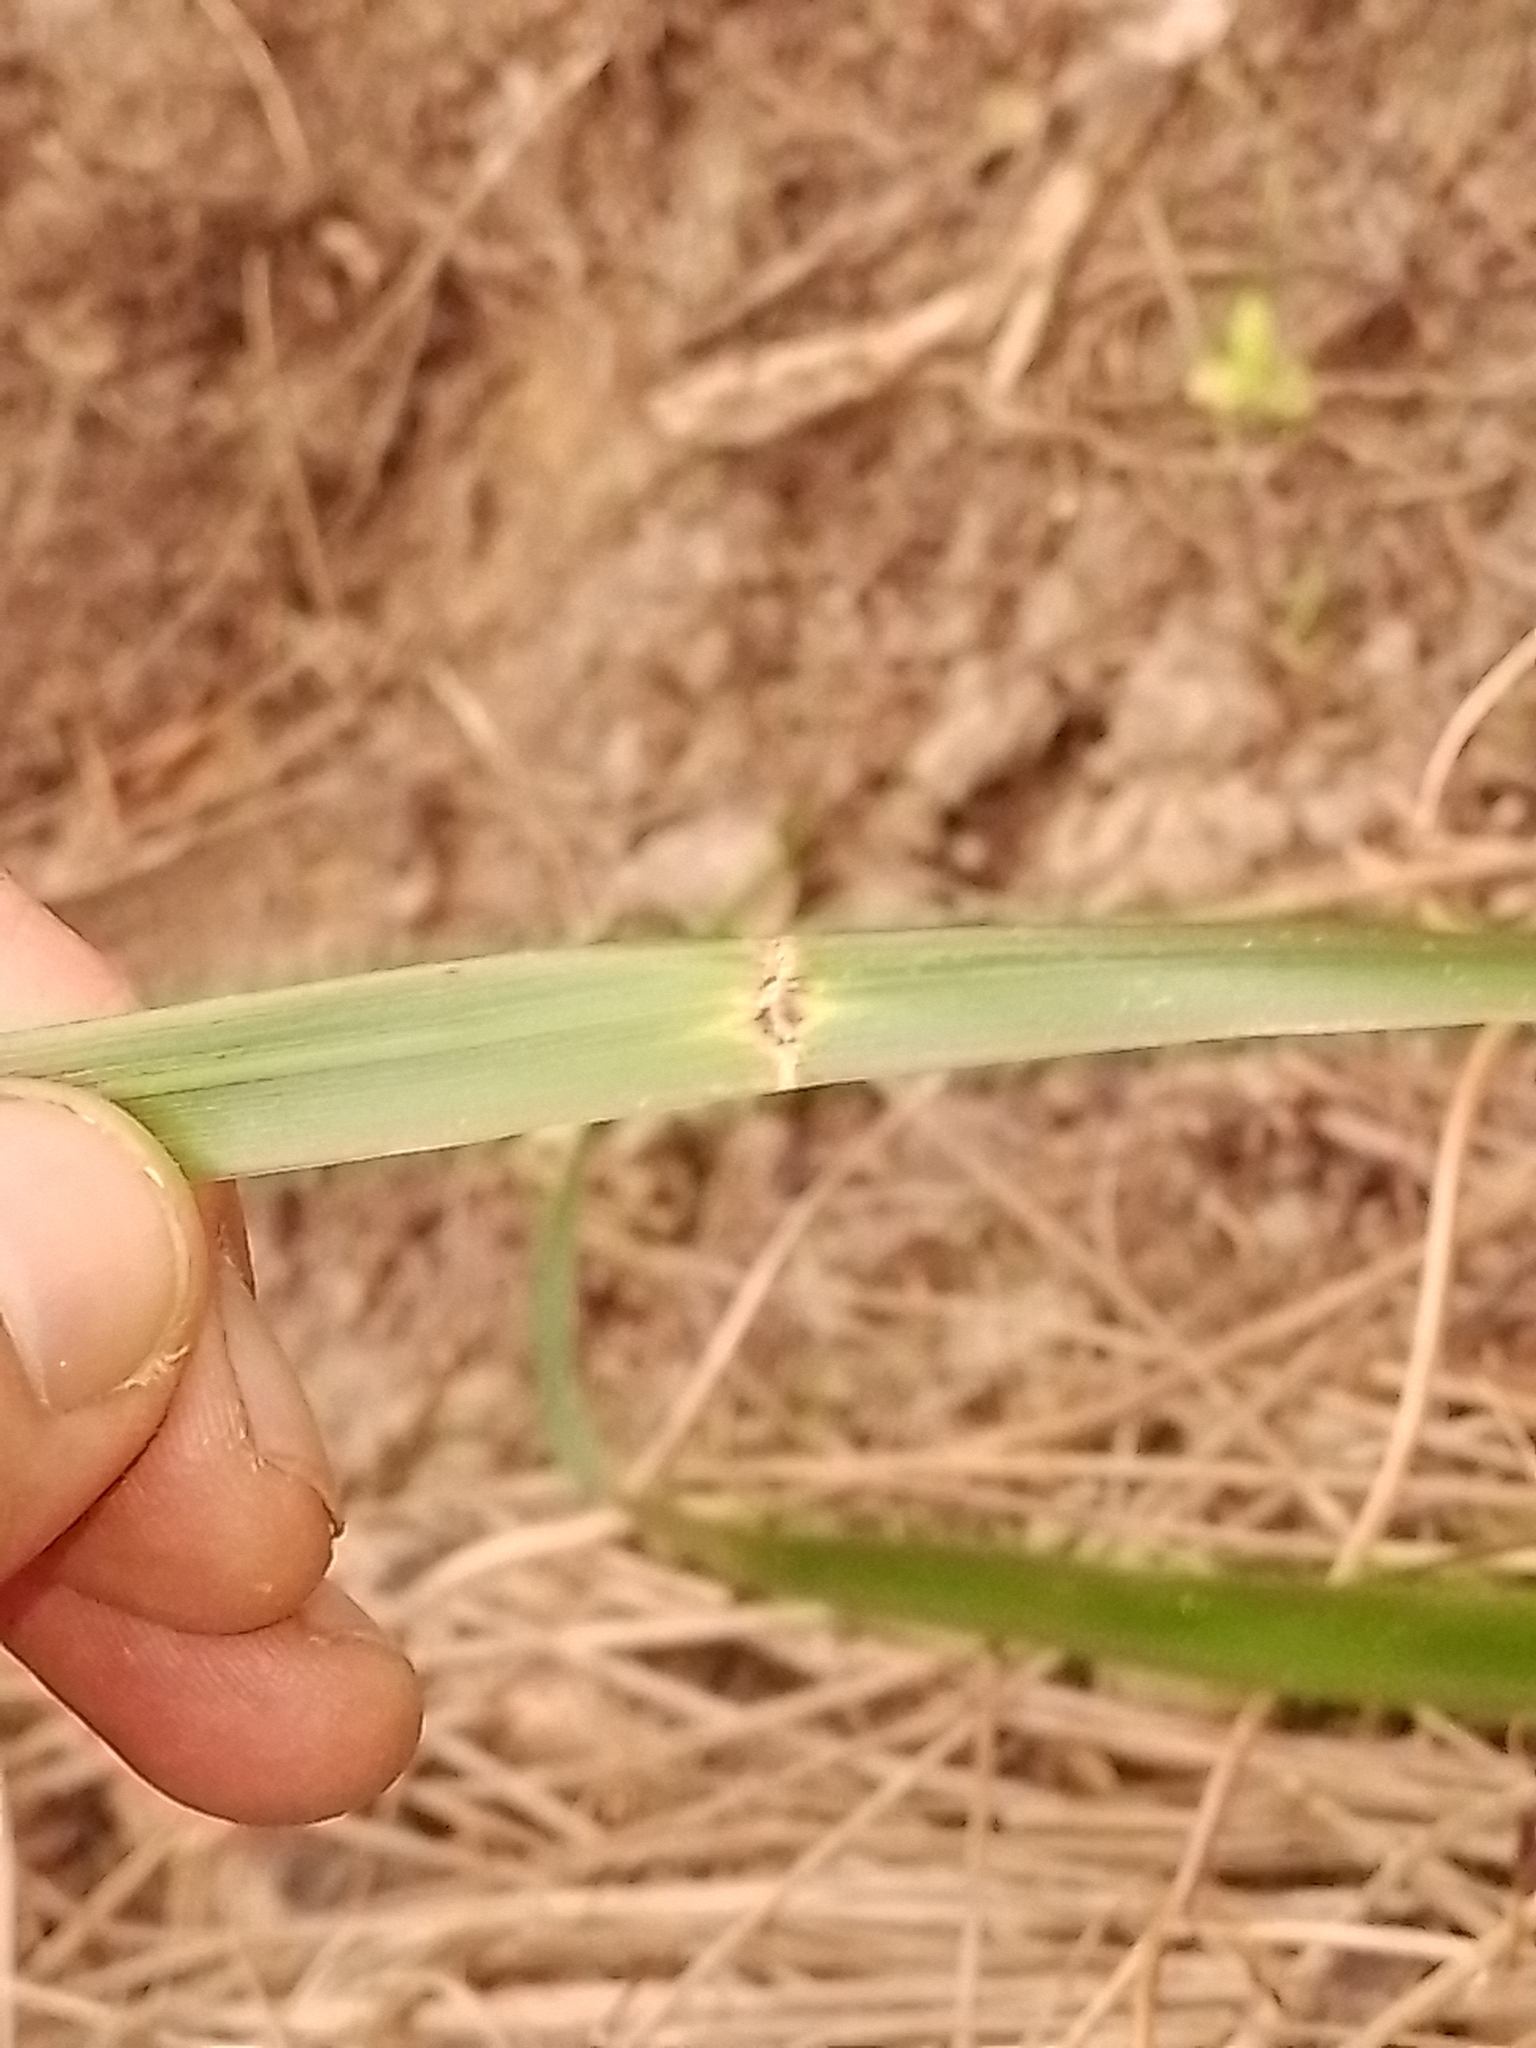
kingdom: Plantae
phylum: Tracheophyta
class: Liliopsida
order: Poales
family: Poaceae
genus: Anthoxanthum
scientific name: Anthoxanthum redolens
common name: Sweet holy grass
